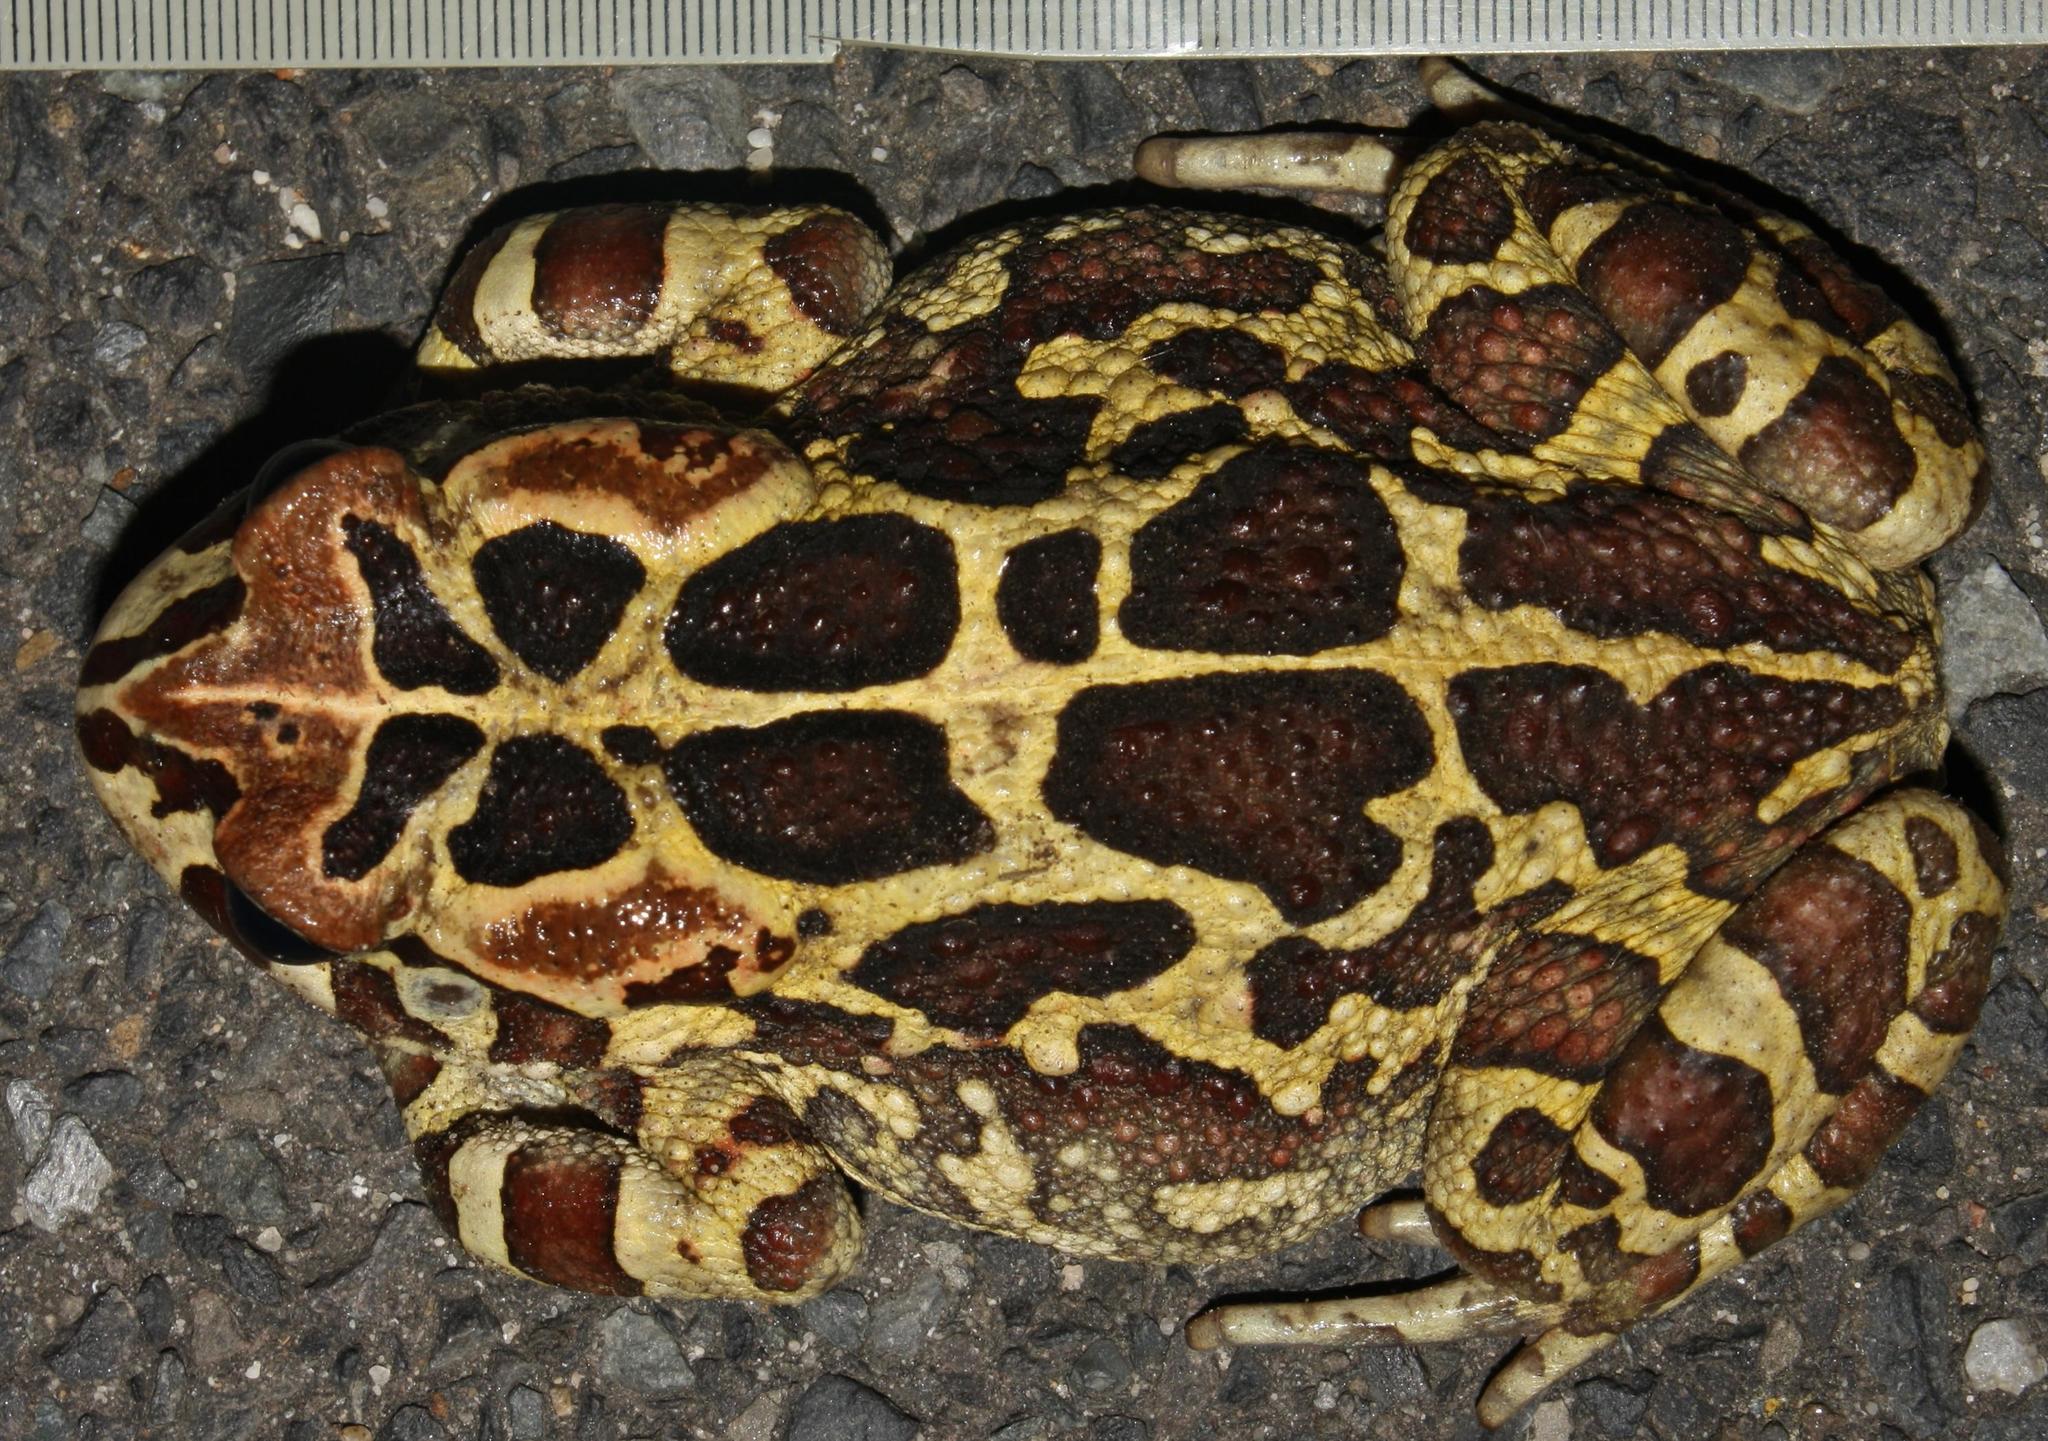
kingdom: Animalia
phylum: Chordata
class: Amphibia
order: Anura
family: Bufonidae
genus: Sclerophrys
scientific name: Sclerophrys pantherina
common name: Panther toad
